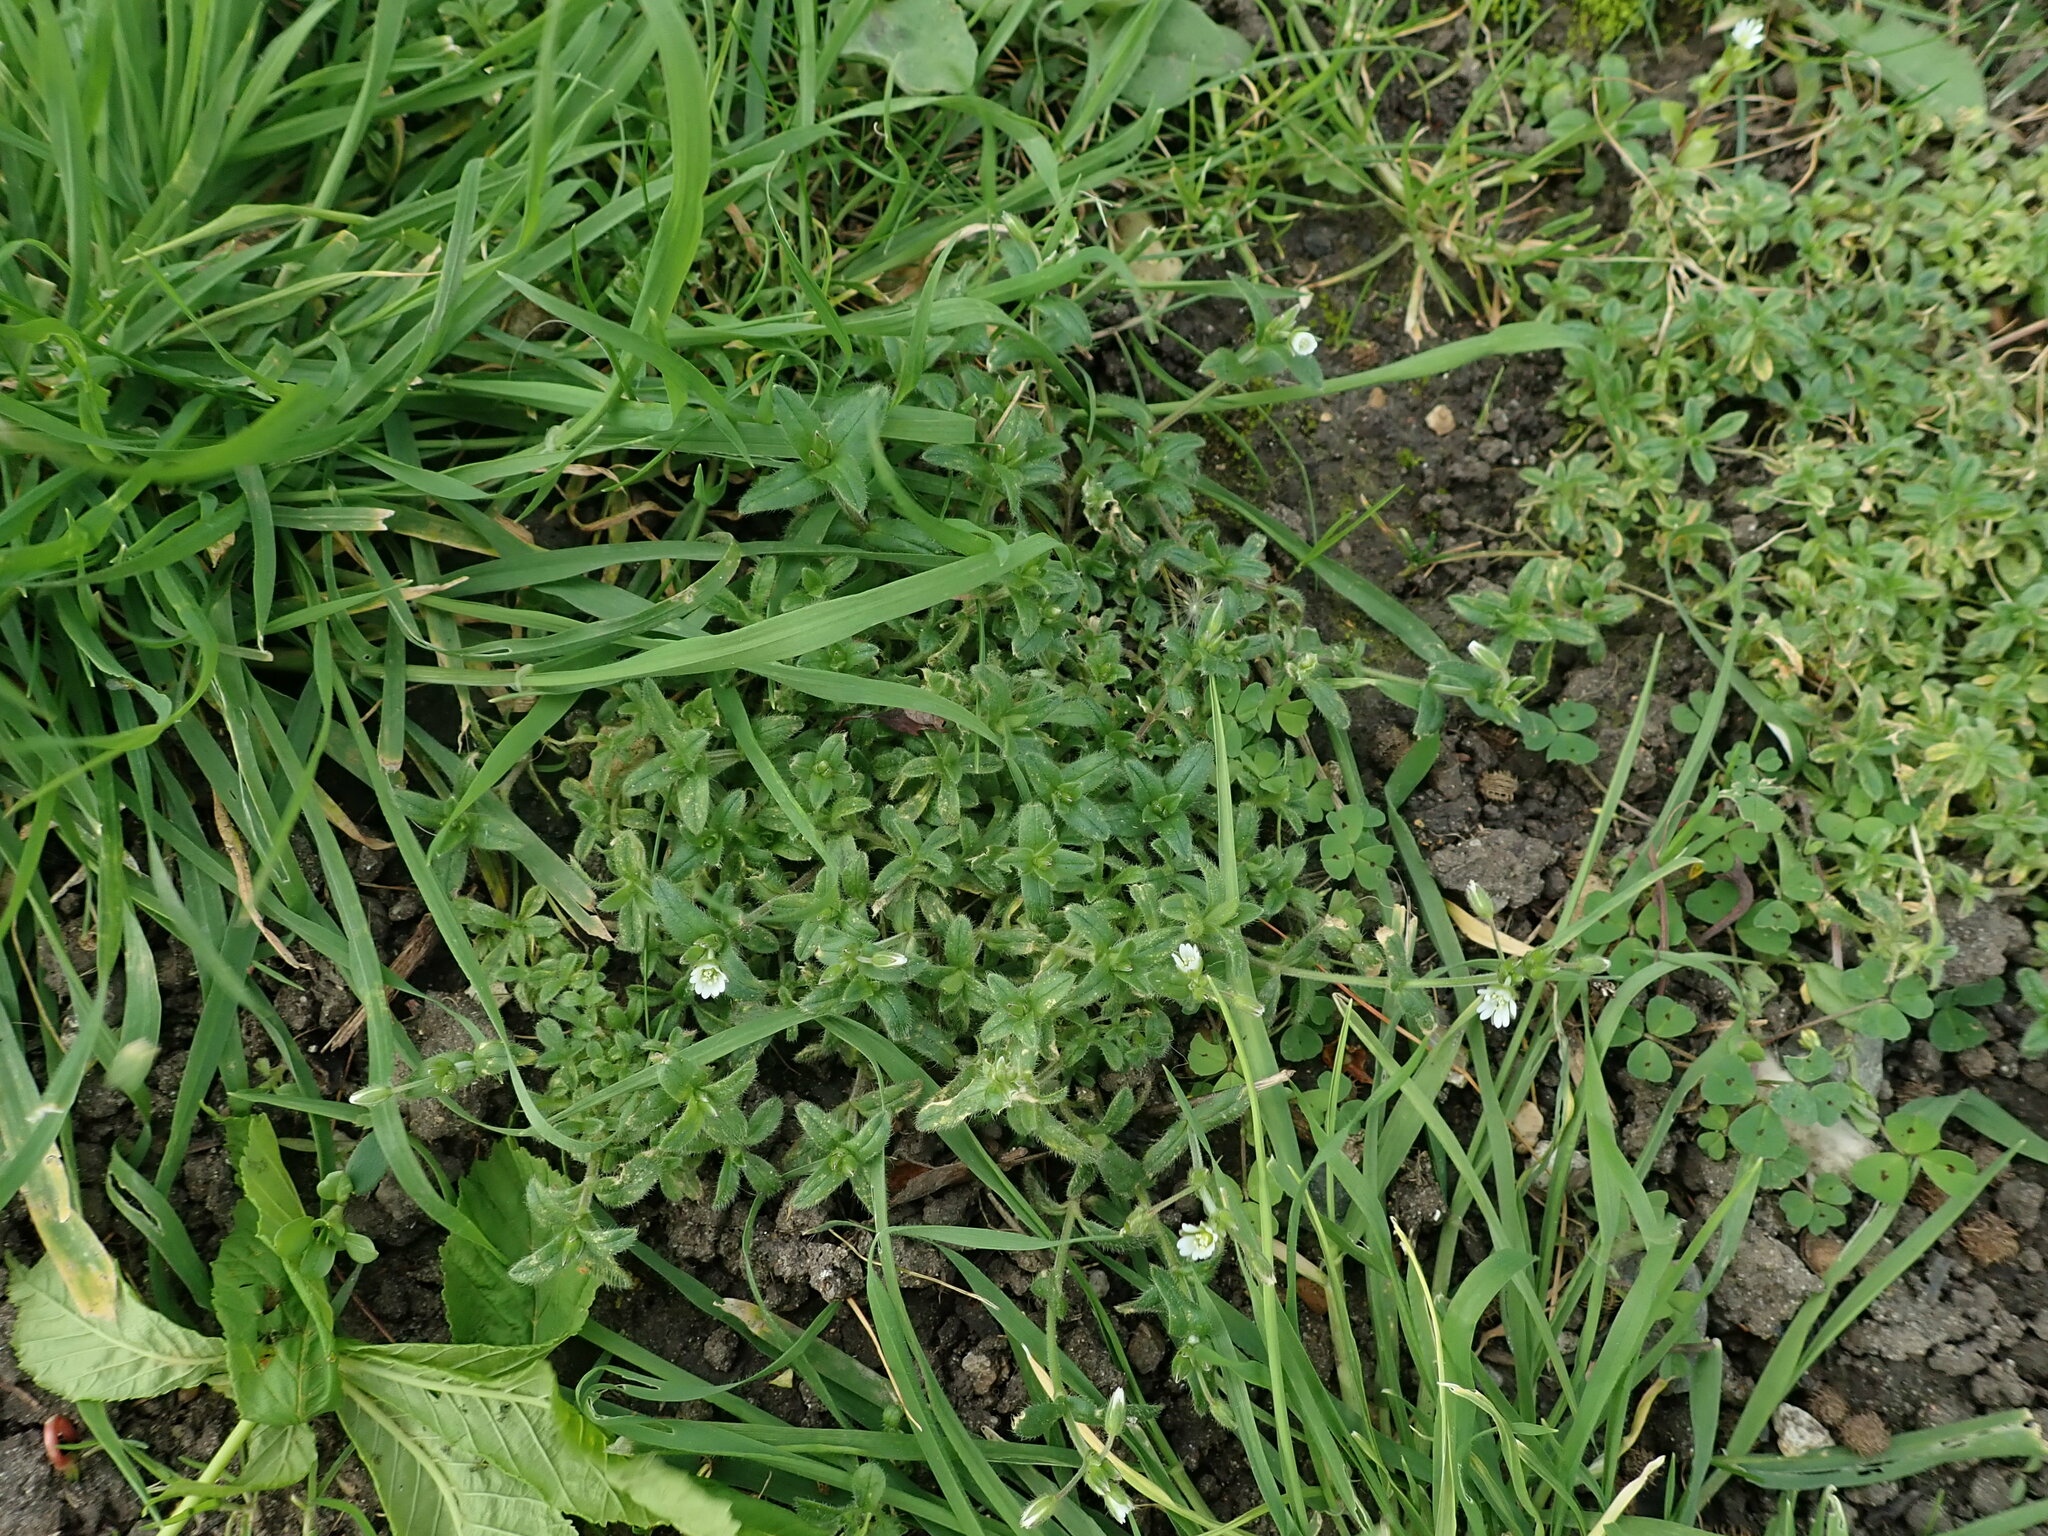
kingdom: Plantae
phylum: Tracheophyta
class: Magnoliopsida
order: Caryophyllales
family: Caryophyllaceae
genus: Cerastium
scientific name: Cerastium fontanum
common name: Common mouse-ear
